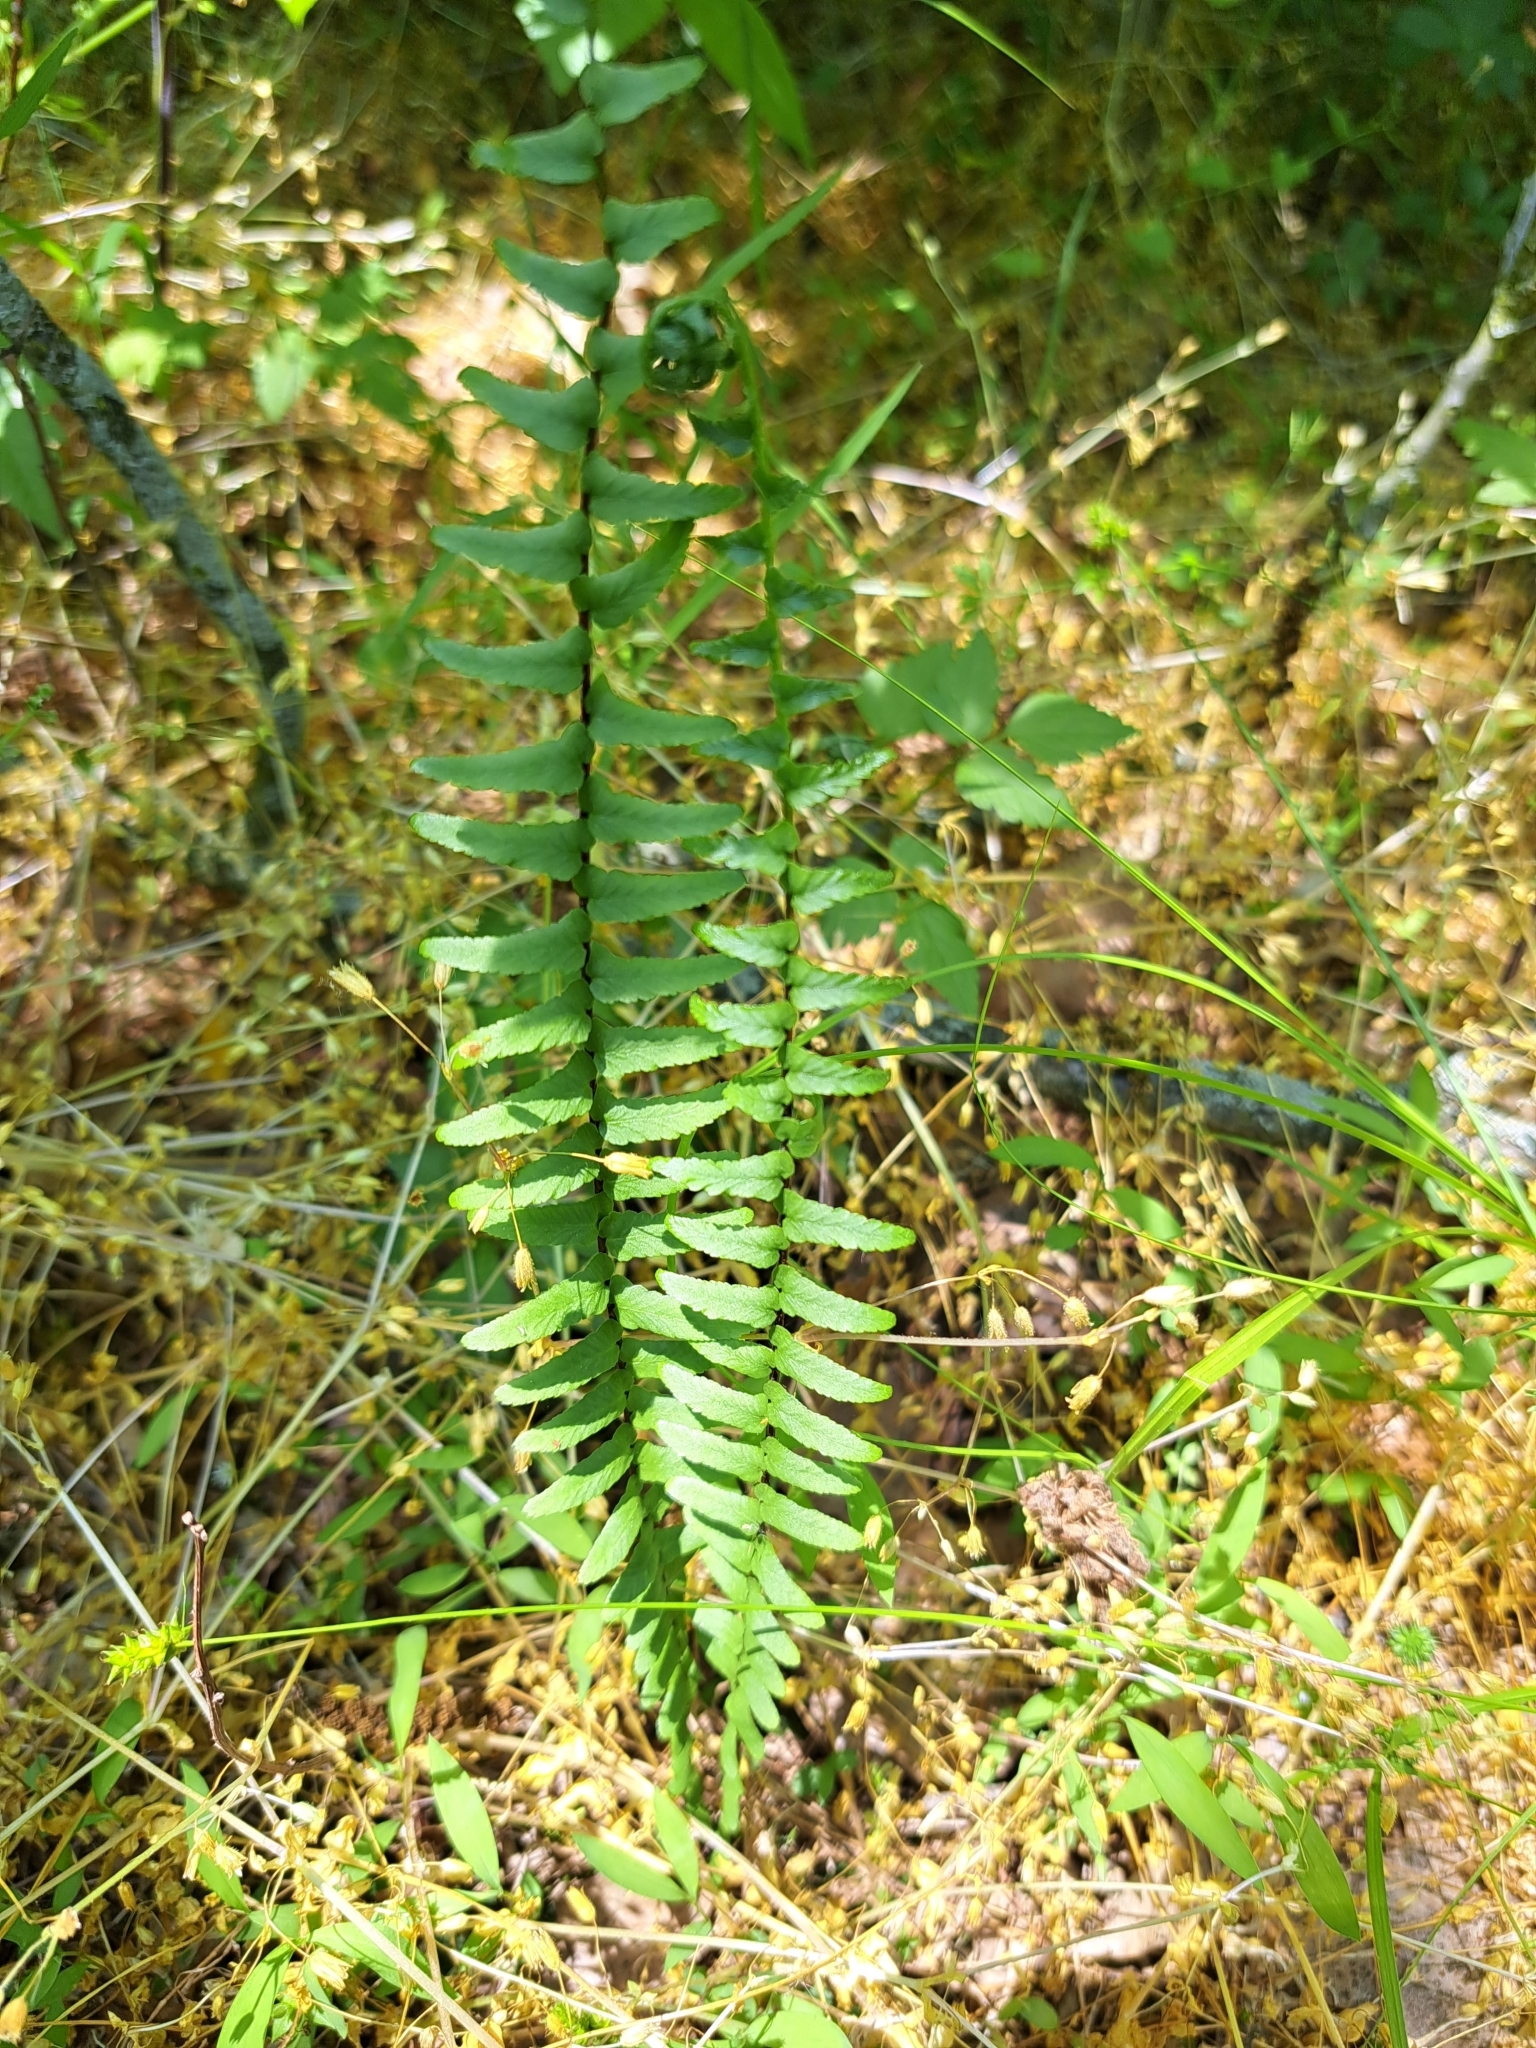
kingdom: Plantae
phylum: Tracheophyta
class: Polypodiopsida
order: Polypodiales
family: Aspleniaceae
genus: Asplenium
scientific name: Asplenium platyneuron
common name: Ebony spleenwort
